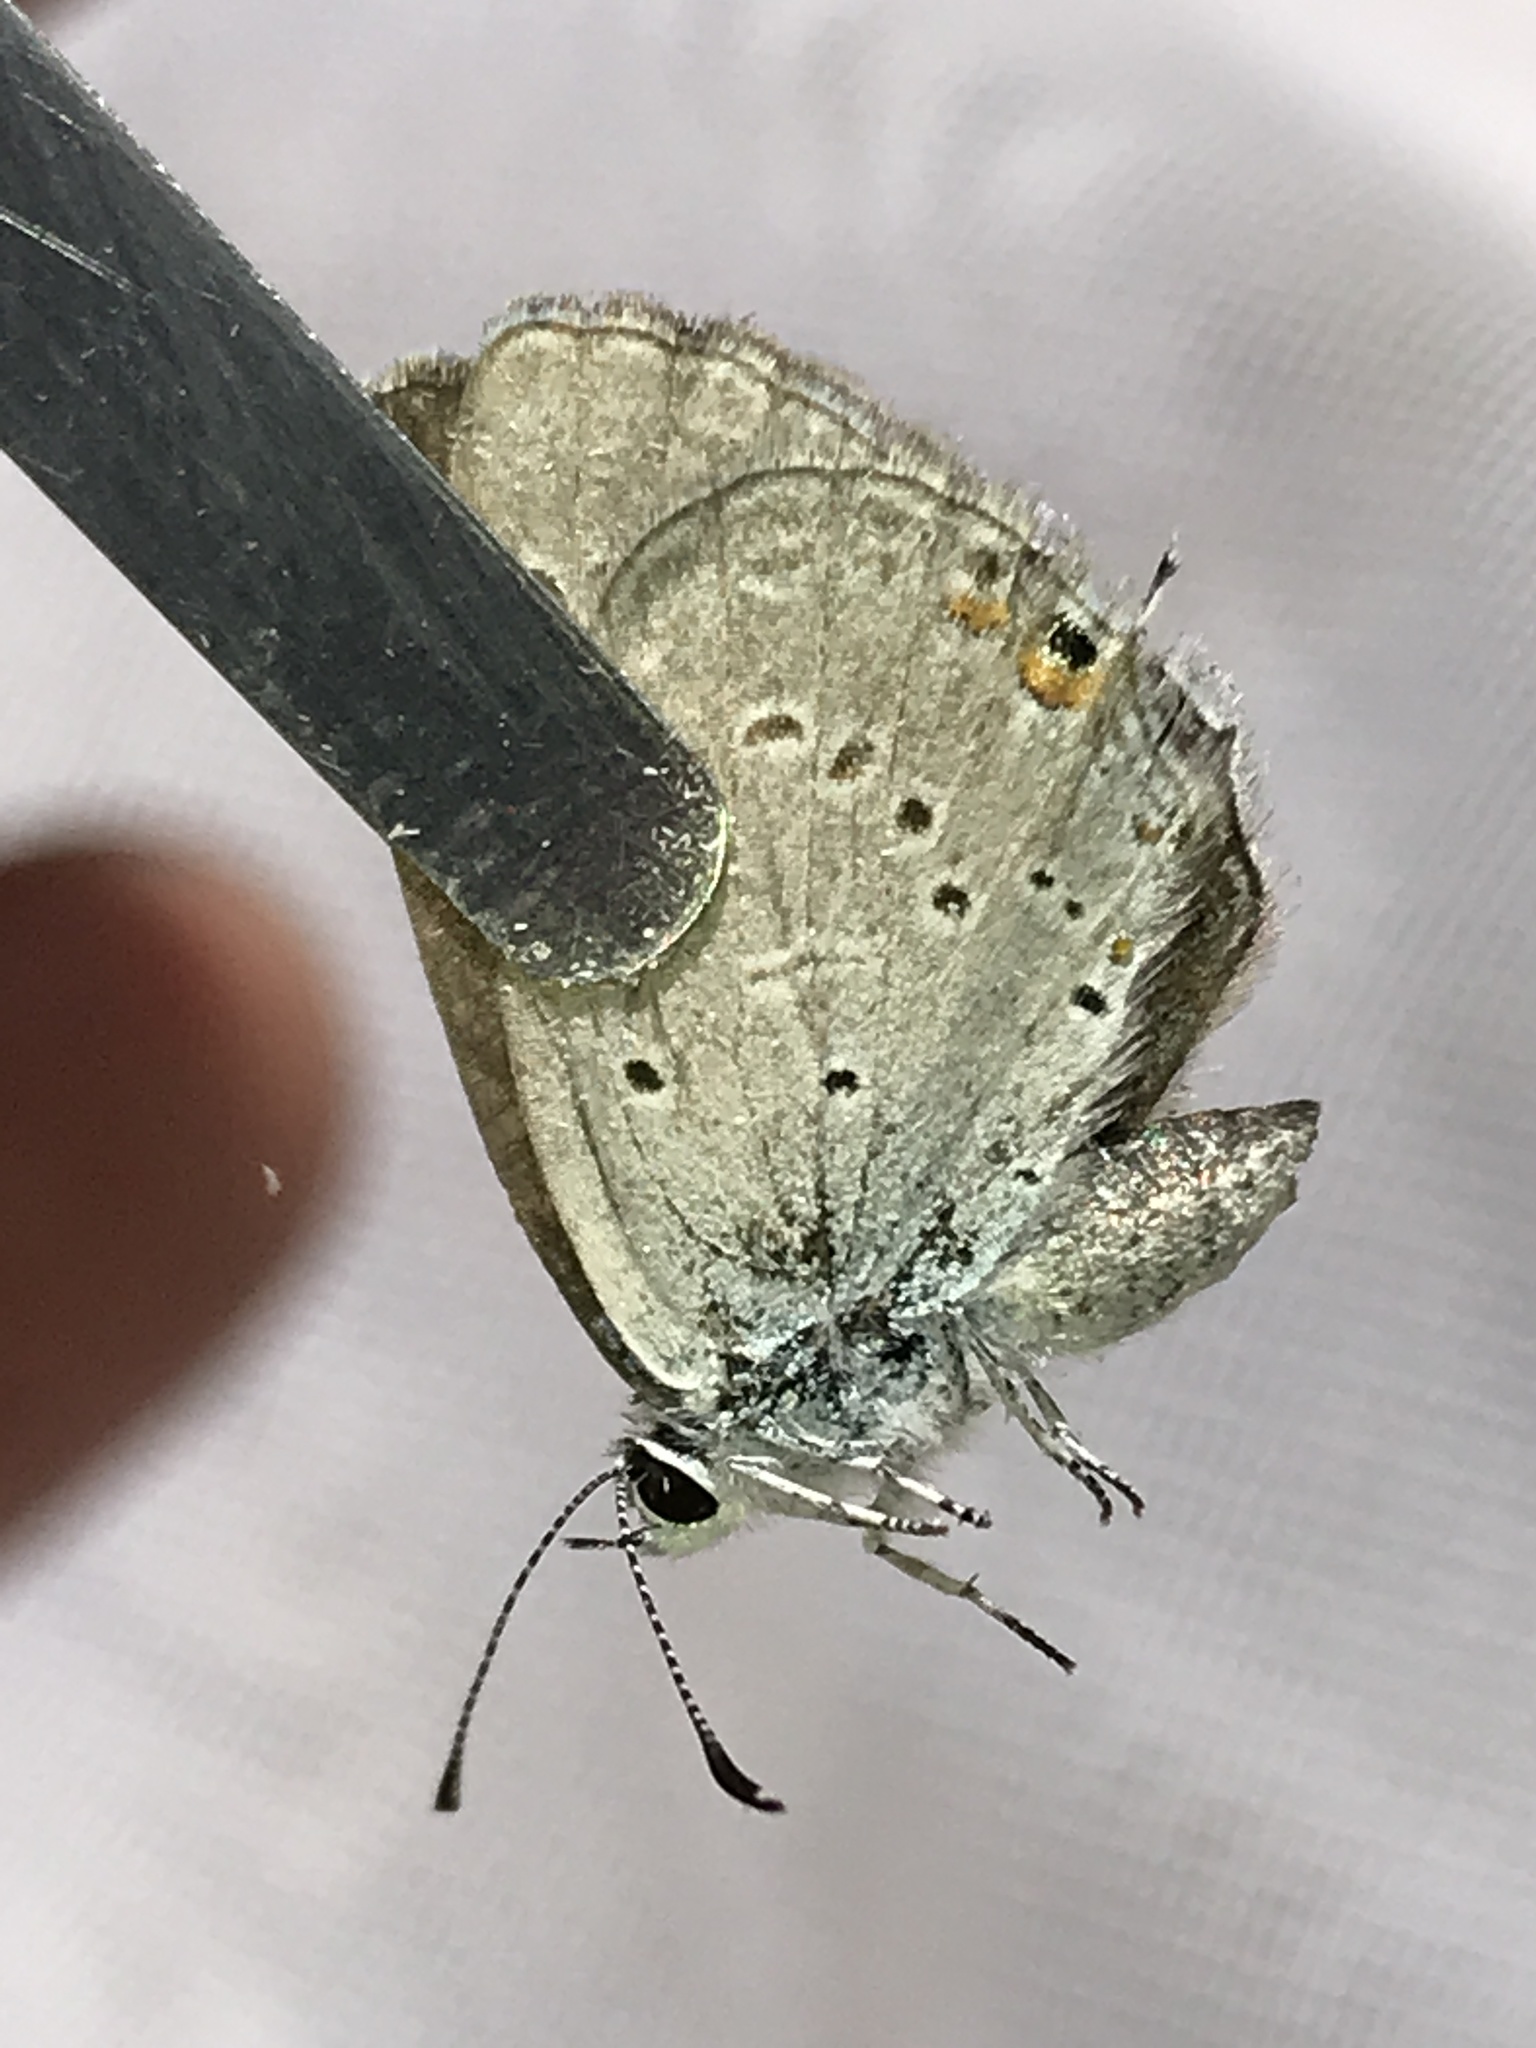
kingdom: Animalia
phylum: Arthropoda
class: Insecta
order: Lepidoptera
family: Lycaenidae
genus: Elkalyce
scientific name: Elkalyce amyntula
